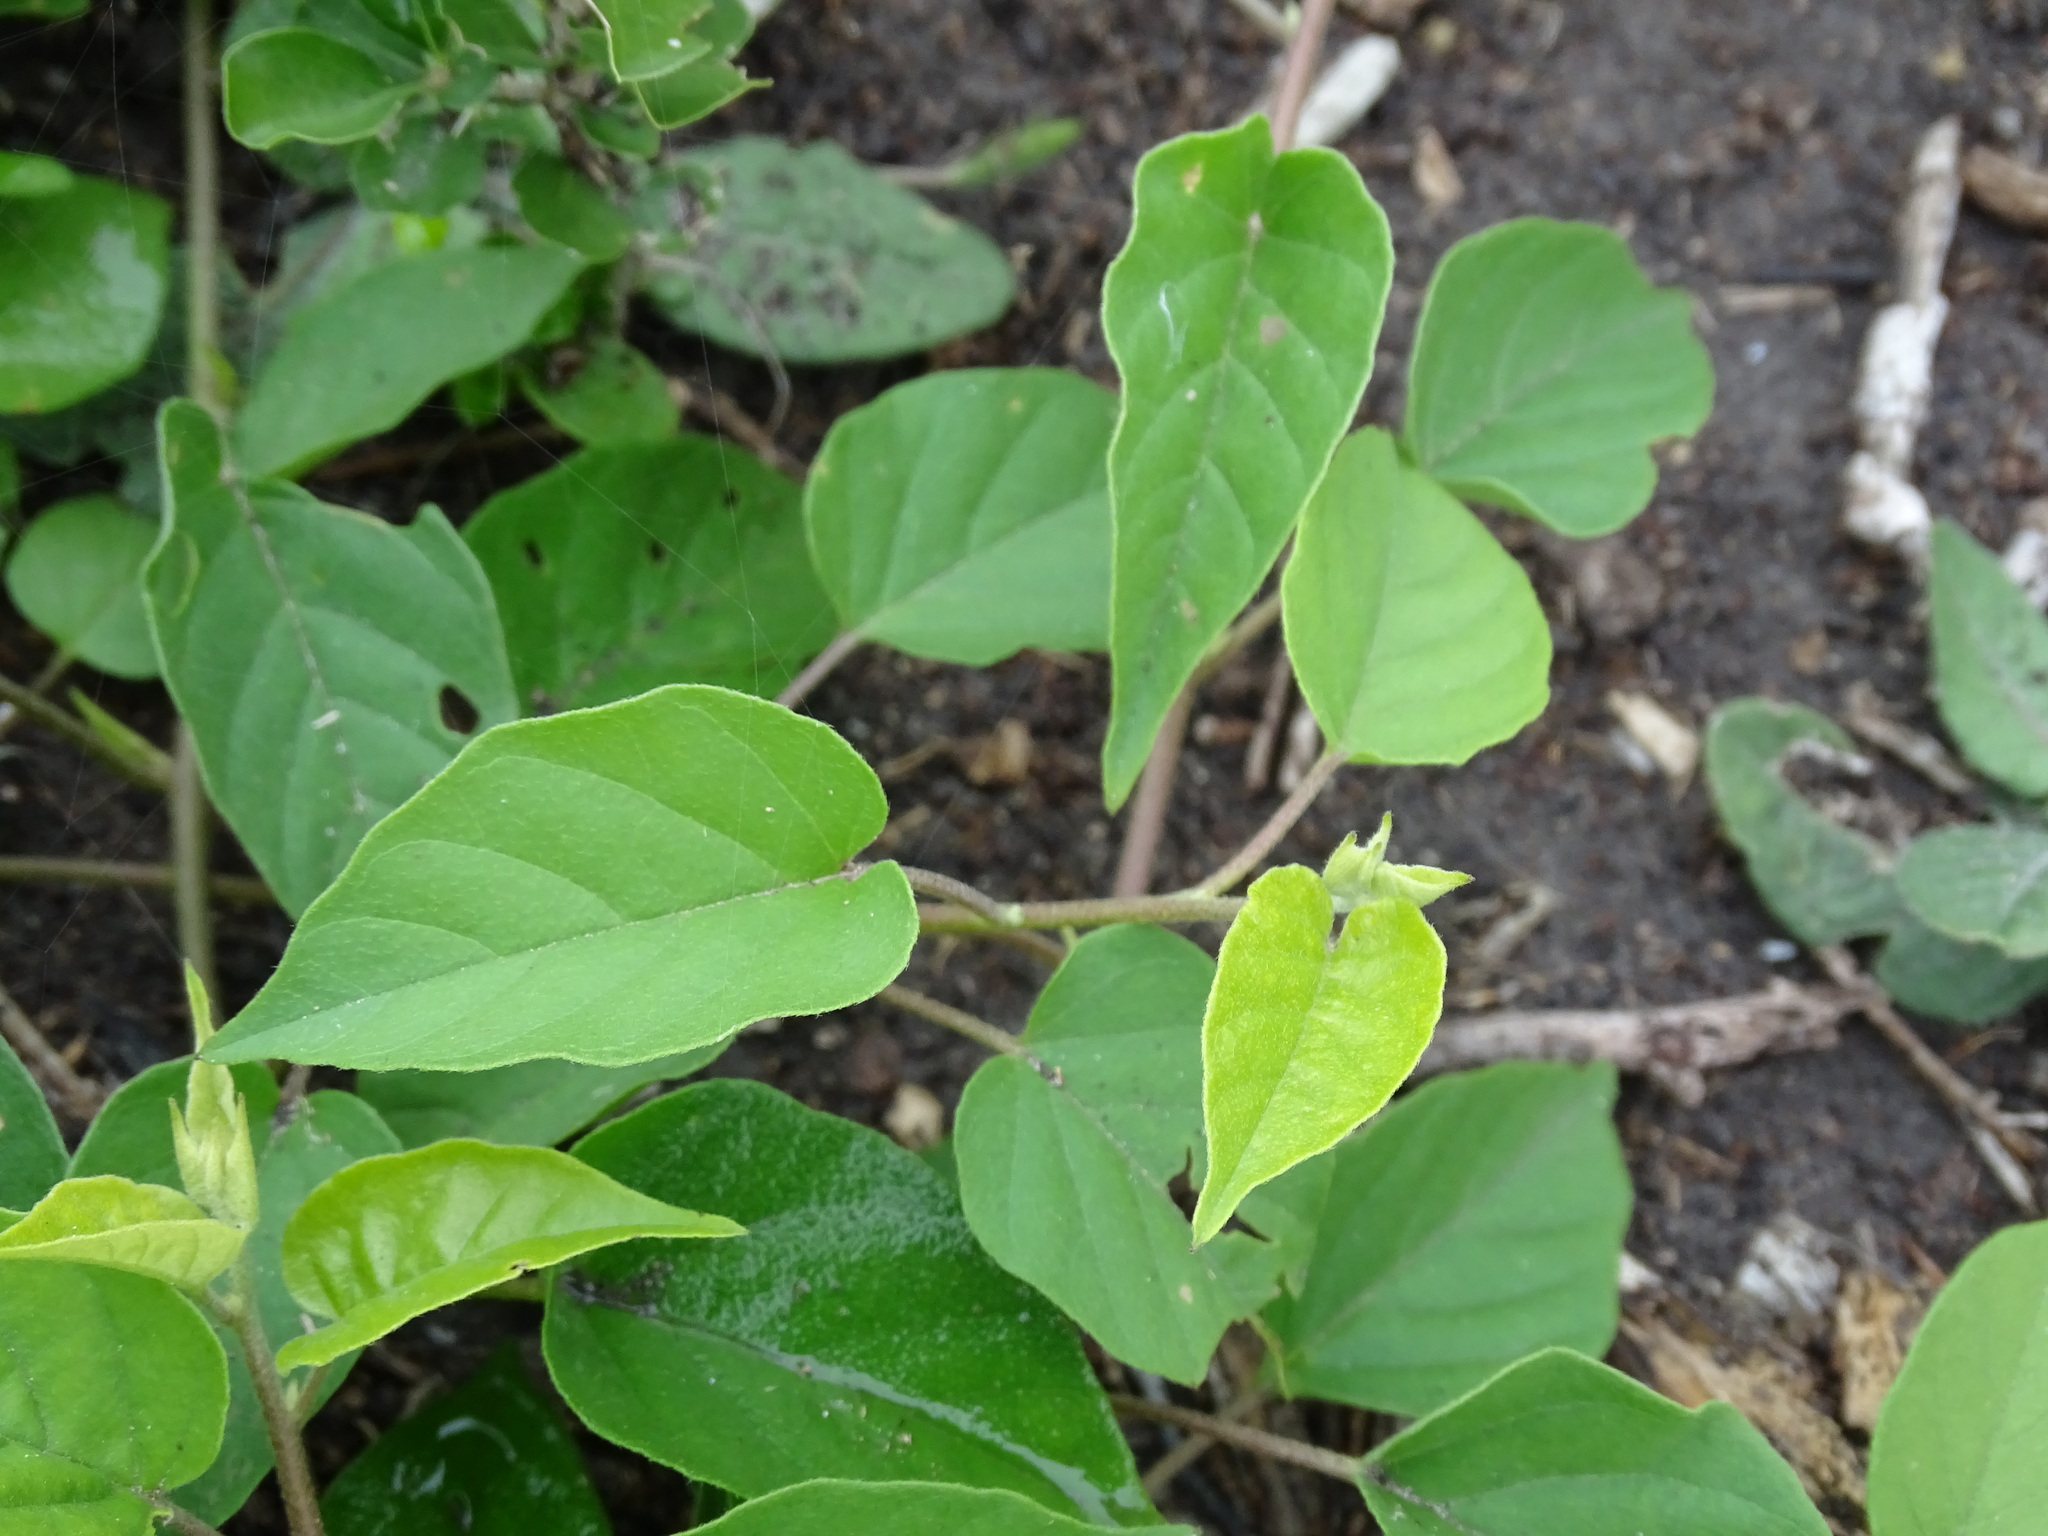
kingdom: Plantae
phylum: Tracheophyta
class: Magnoliopsida
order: Solanales
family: Convolvulaceae
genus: Jacquemontia
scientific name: Jacquemontia pentanthos
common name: Skyblue clustervine
